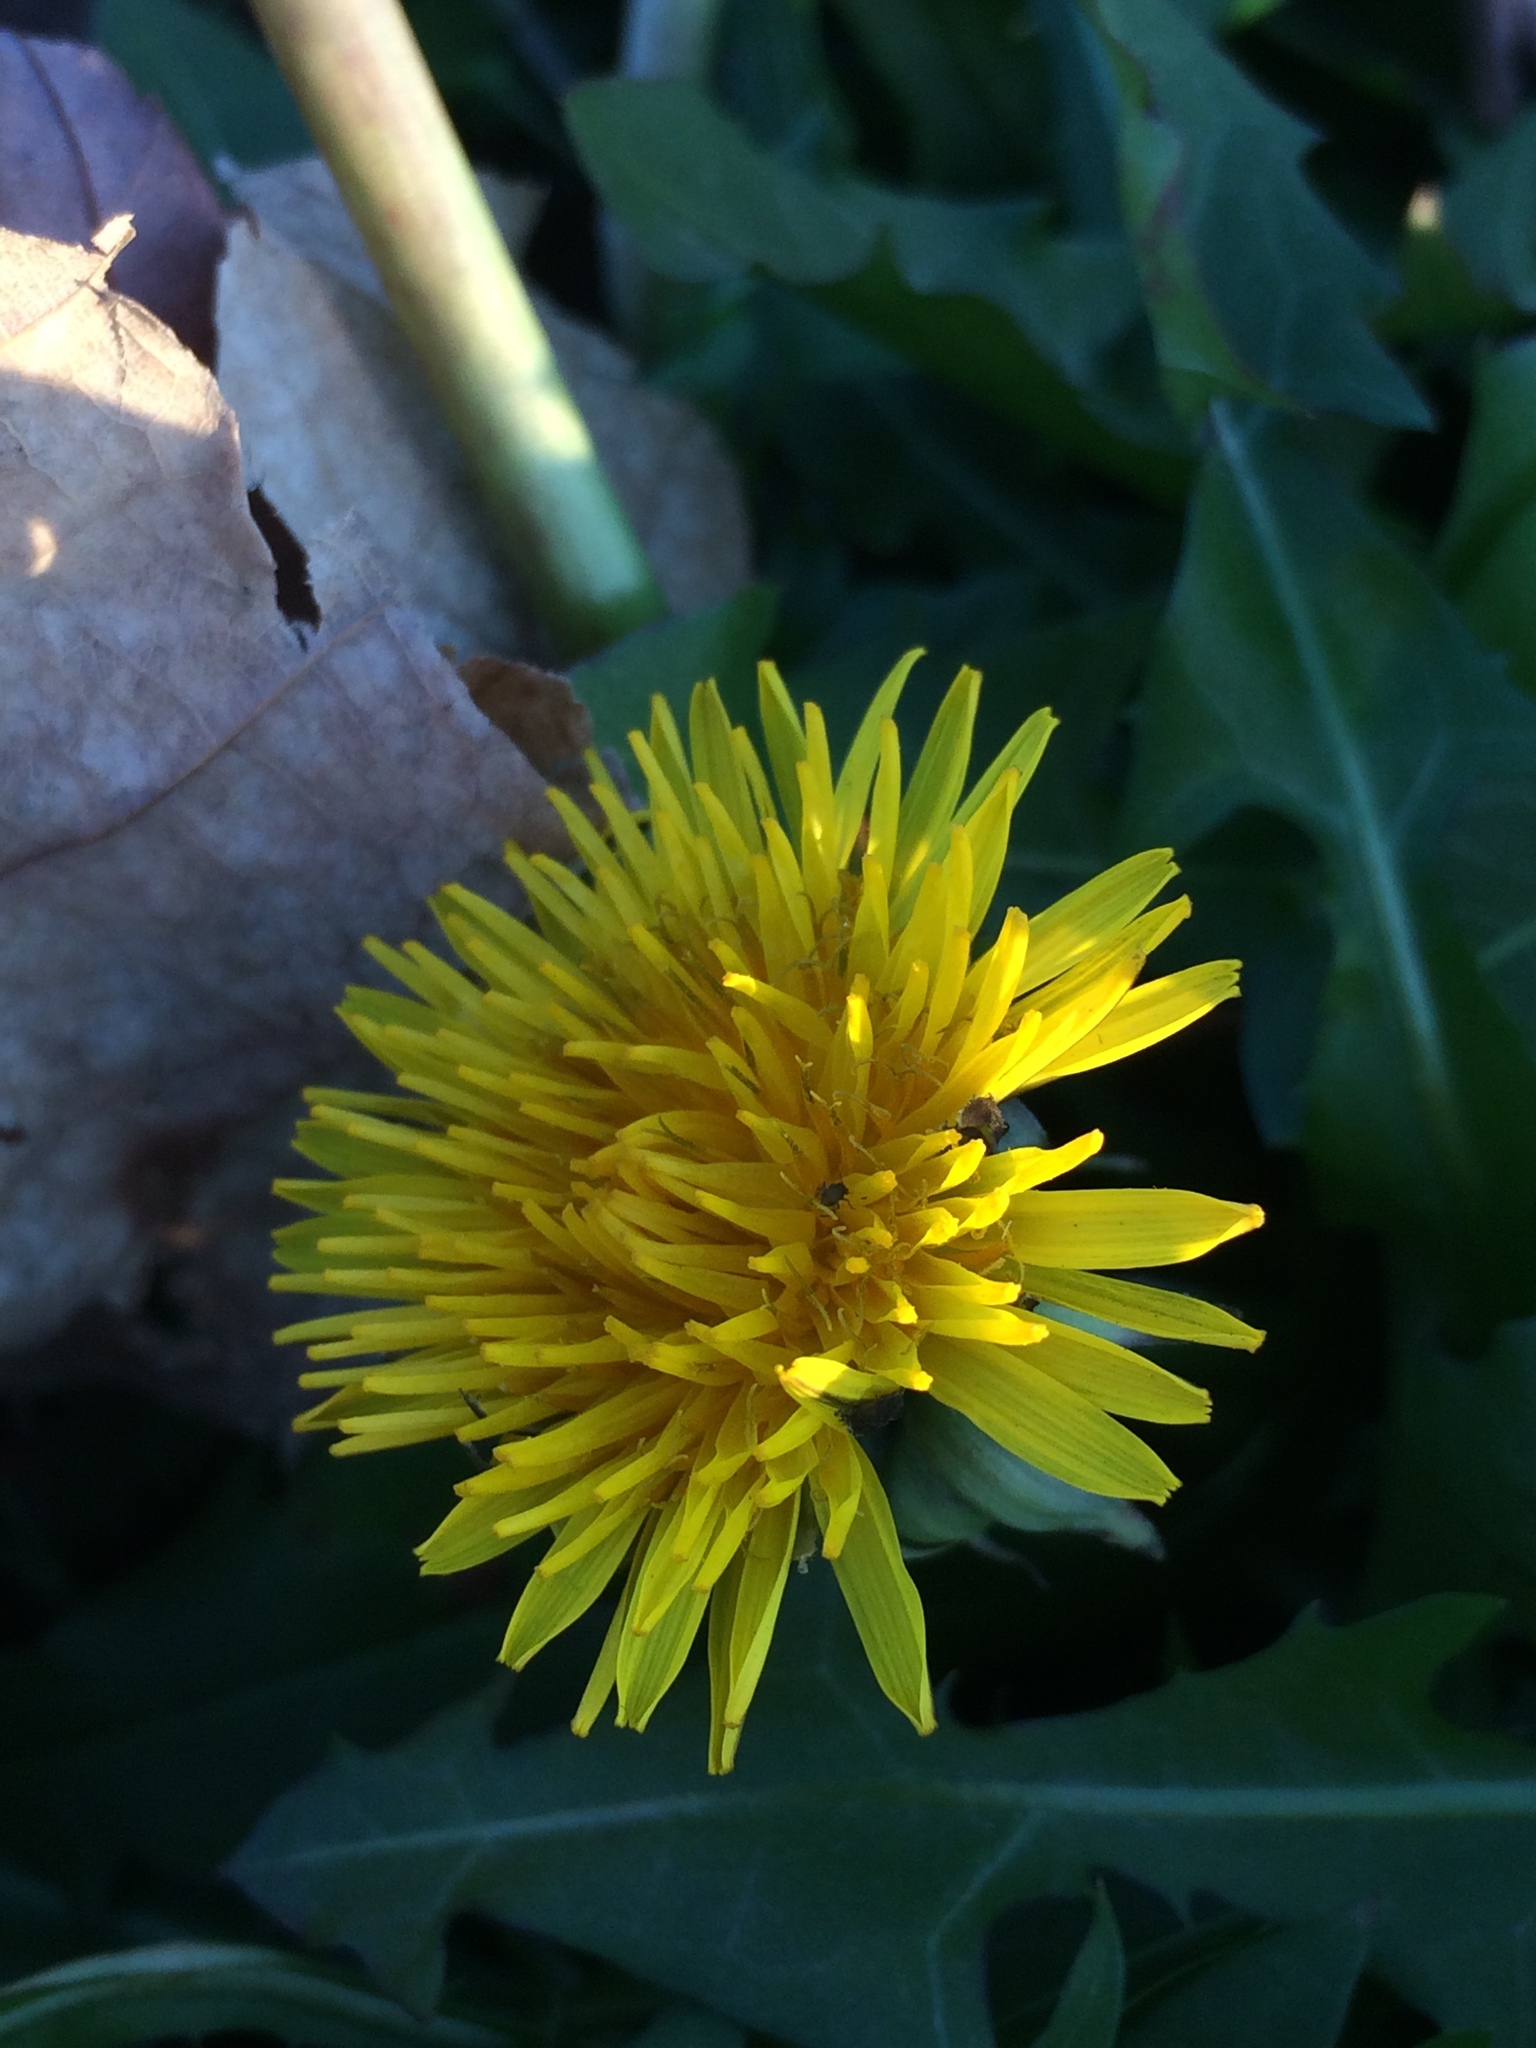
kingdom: Plantae
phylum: Tracheophyta
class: Magnoliopsida
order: Asterales
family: Asteraceae
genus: Taraxacum
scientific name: Taraxacum officinale
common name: Common dandelion
